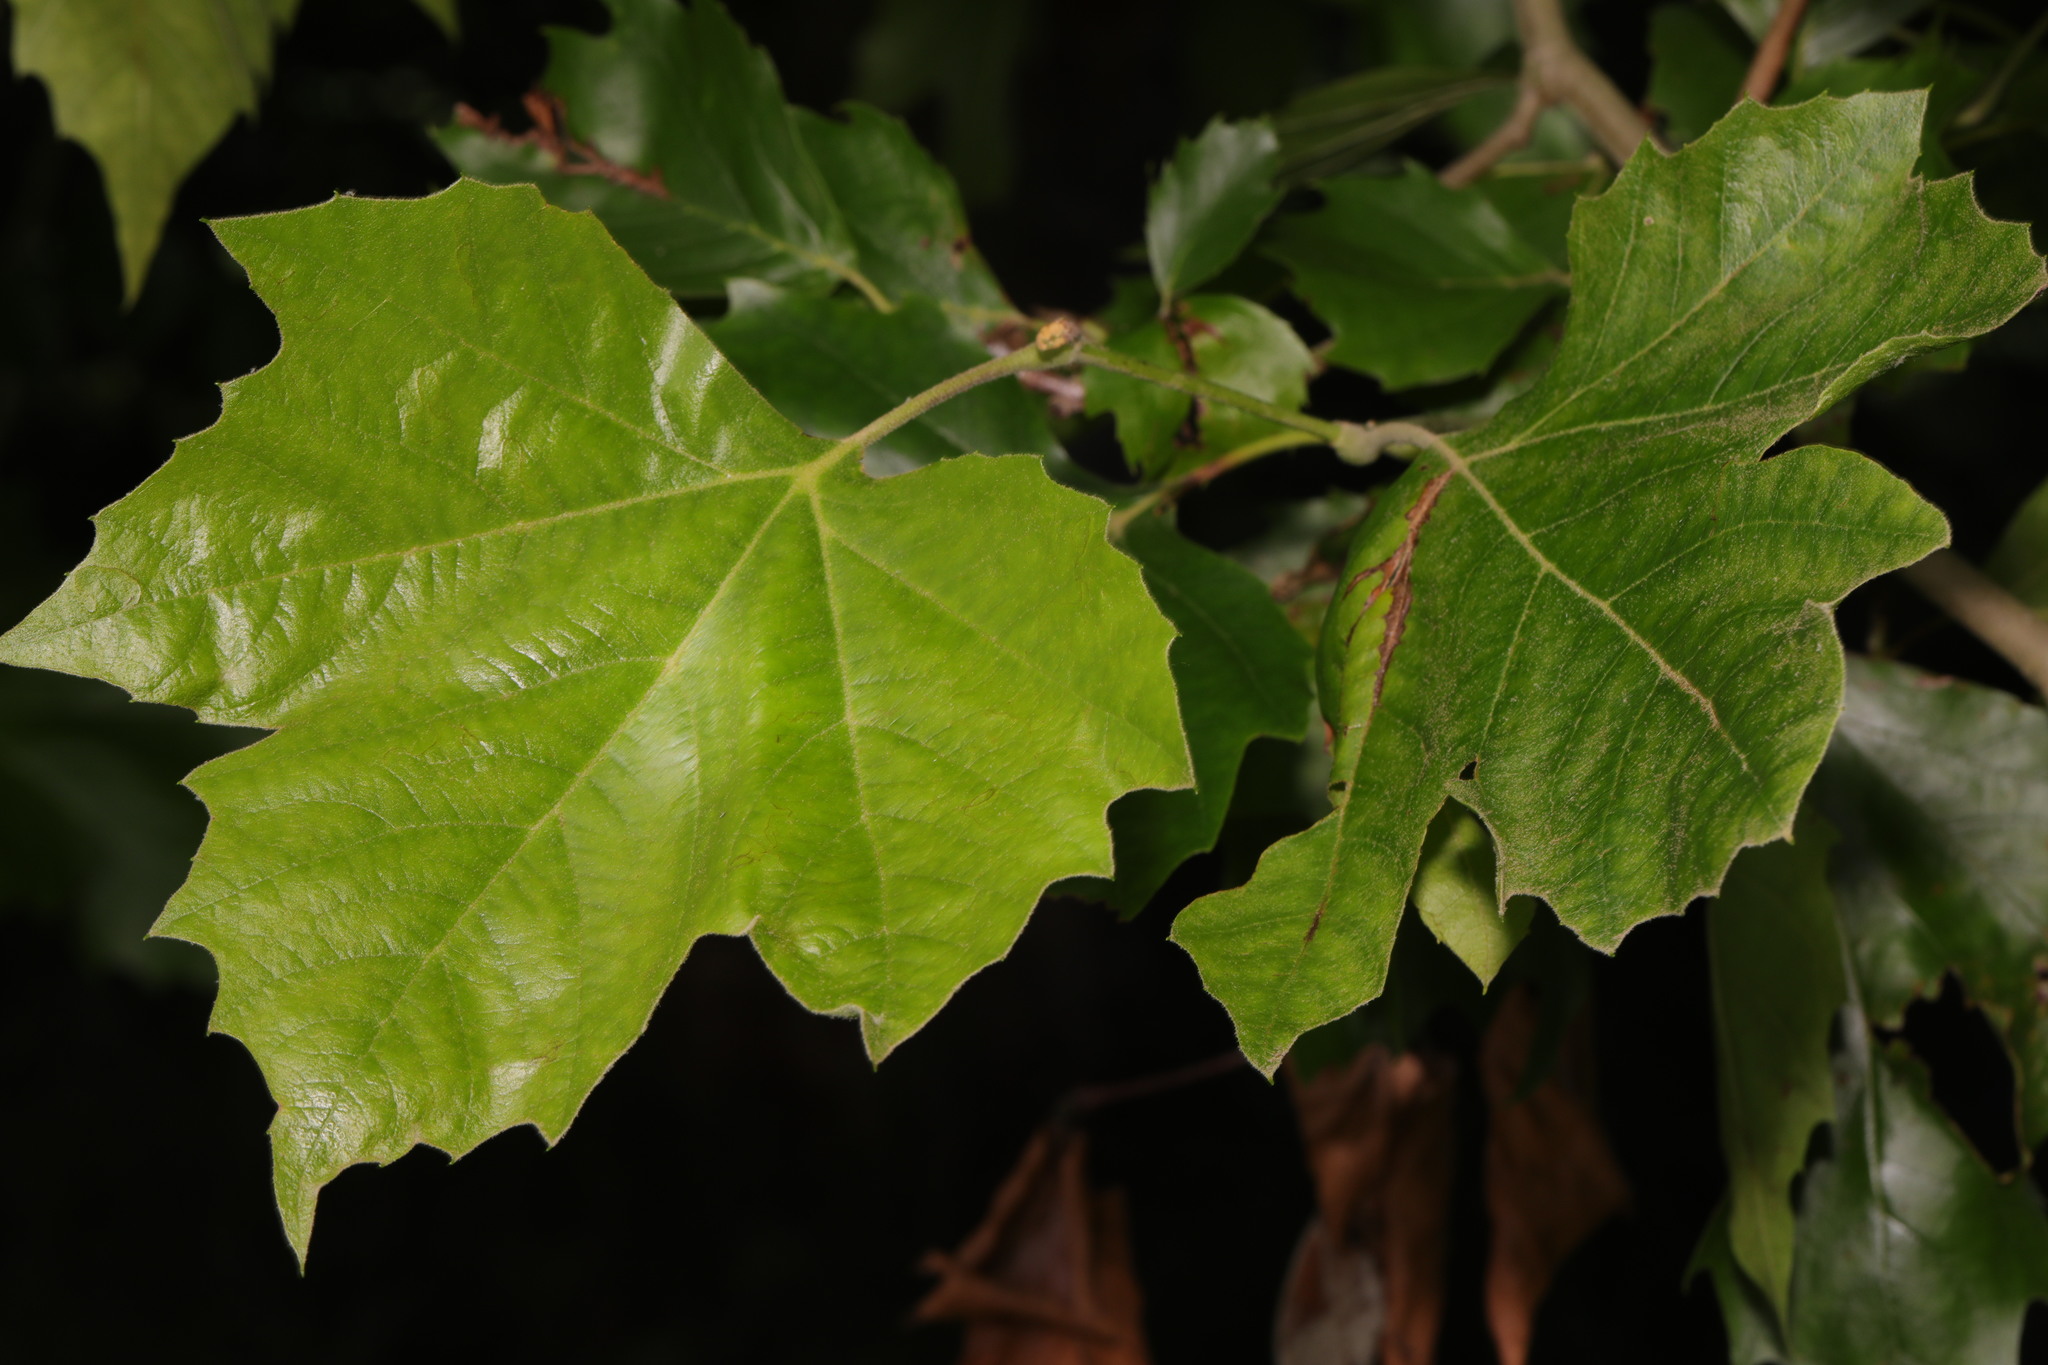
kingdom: Plantae
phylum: Tracheophyta
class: Magnoliopsida
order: Proteales
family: Platanaceae
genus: Platanus
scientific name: Platanus hispanica
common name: London plane
